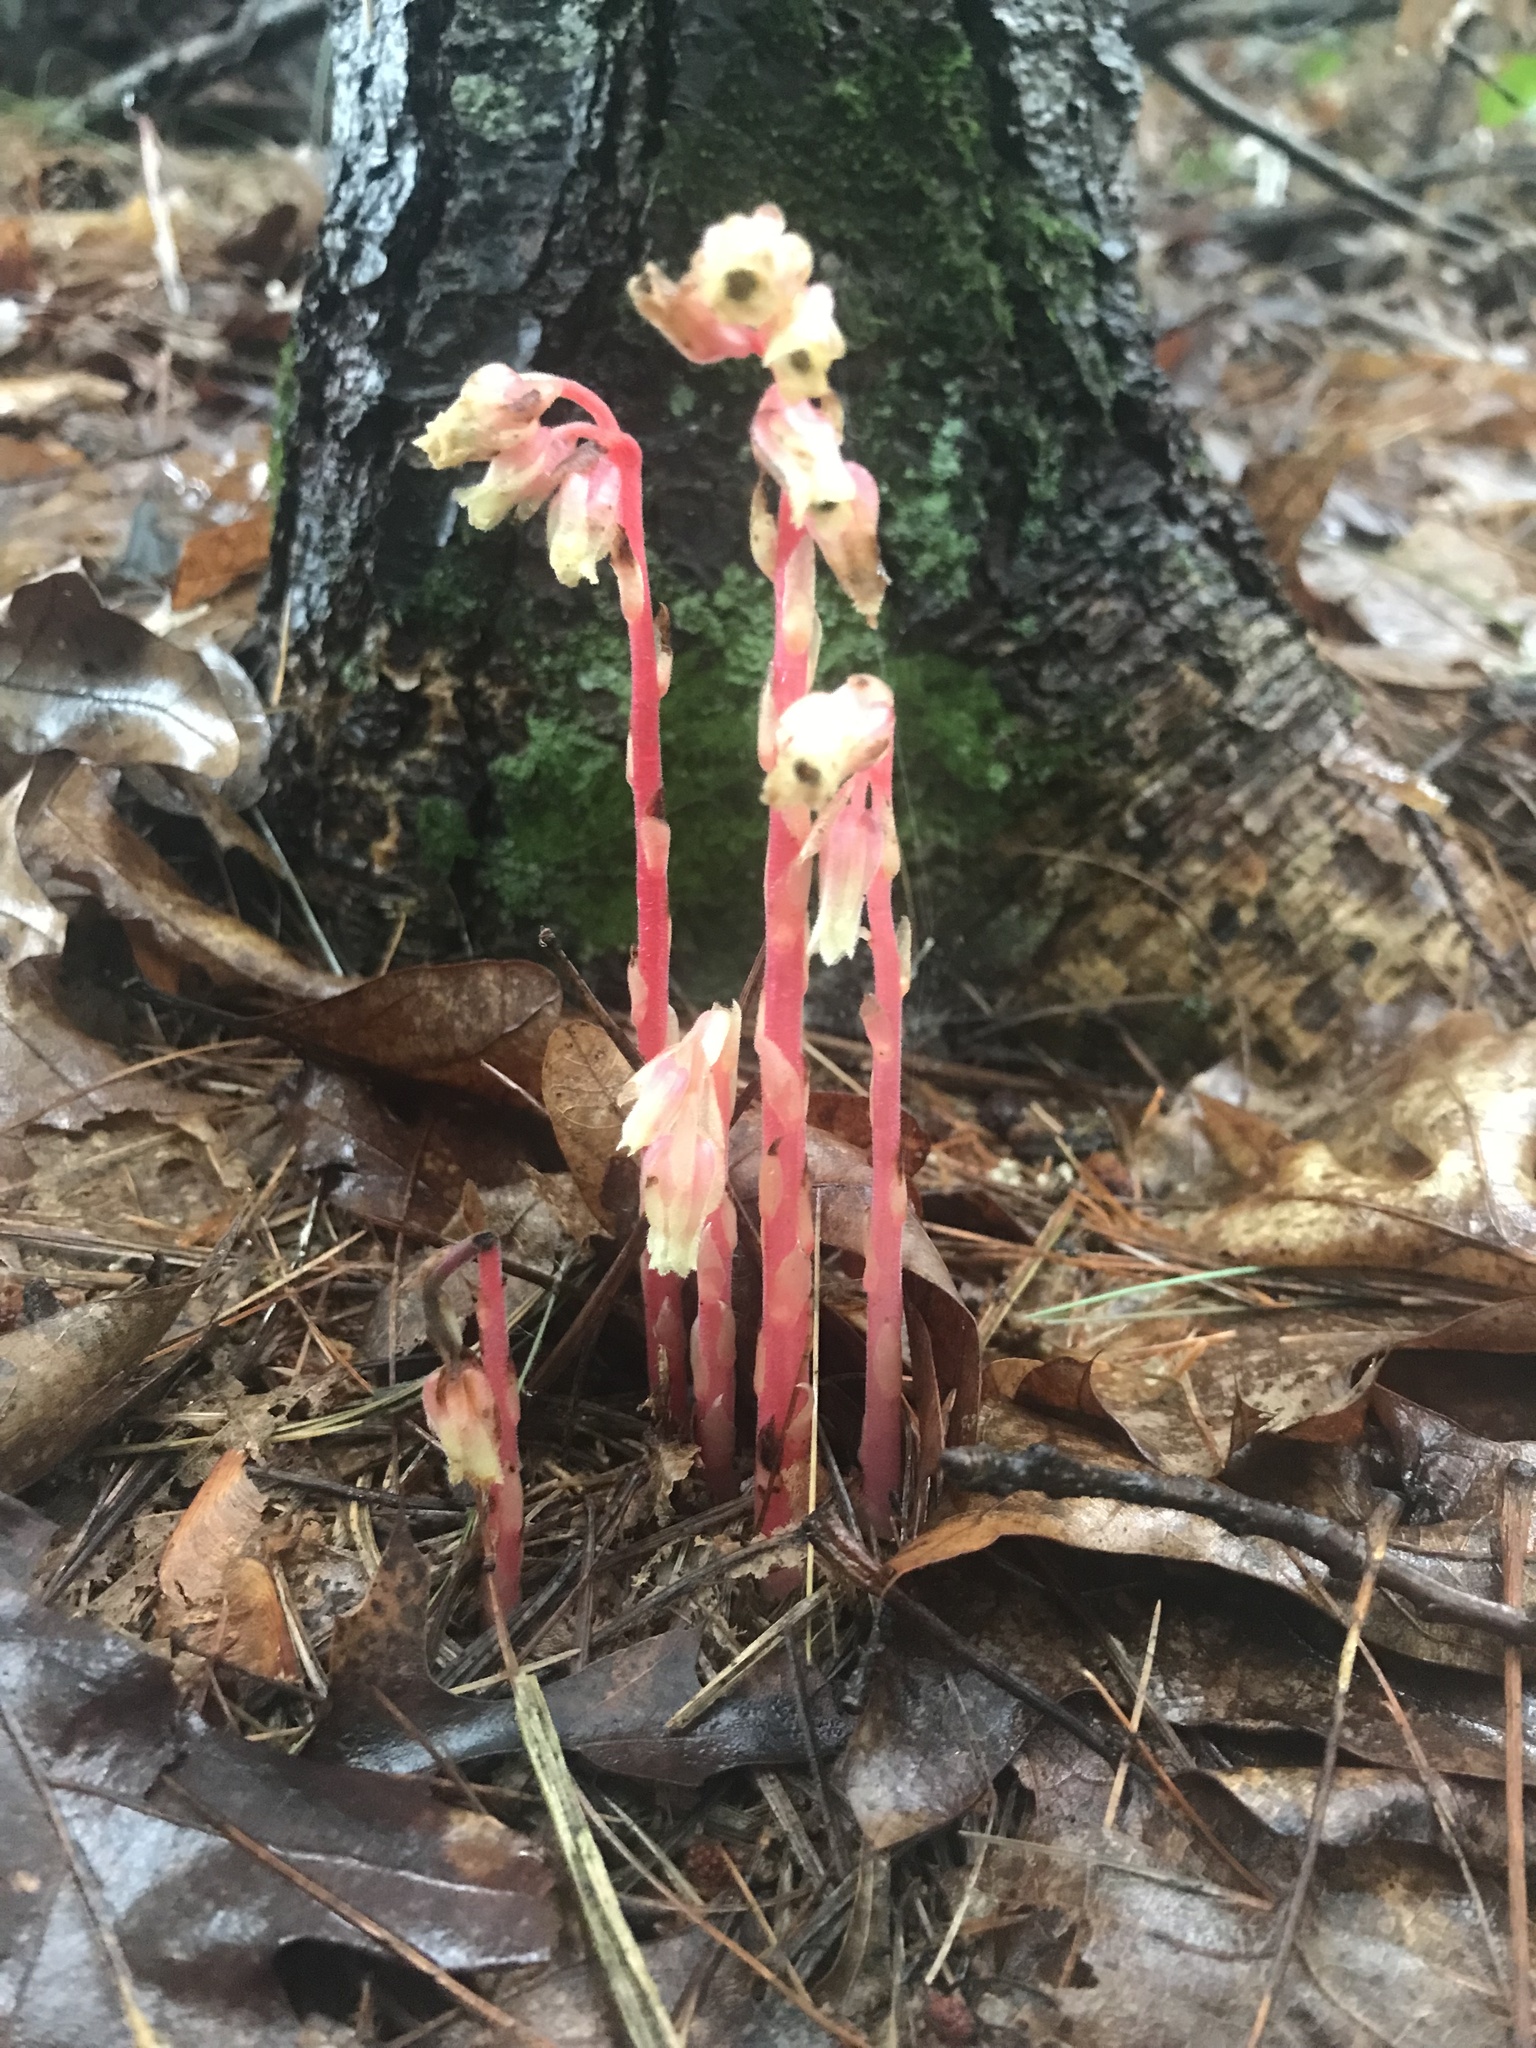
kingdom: Plantae
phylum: Tracheophyta
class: Magnoliopsida
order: Ericales
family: Ericaceae
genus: Hypopitys
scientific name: Hypopitys monotropa
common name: Yellow bird's-nest
